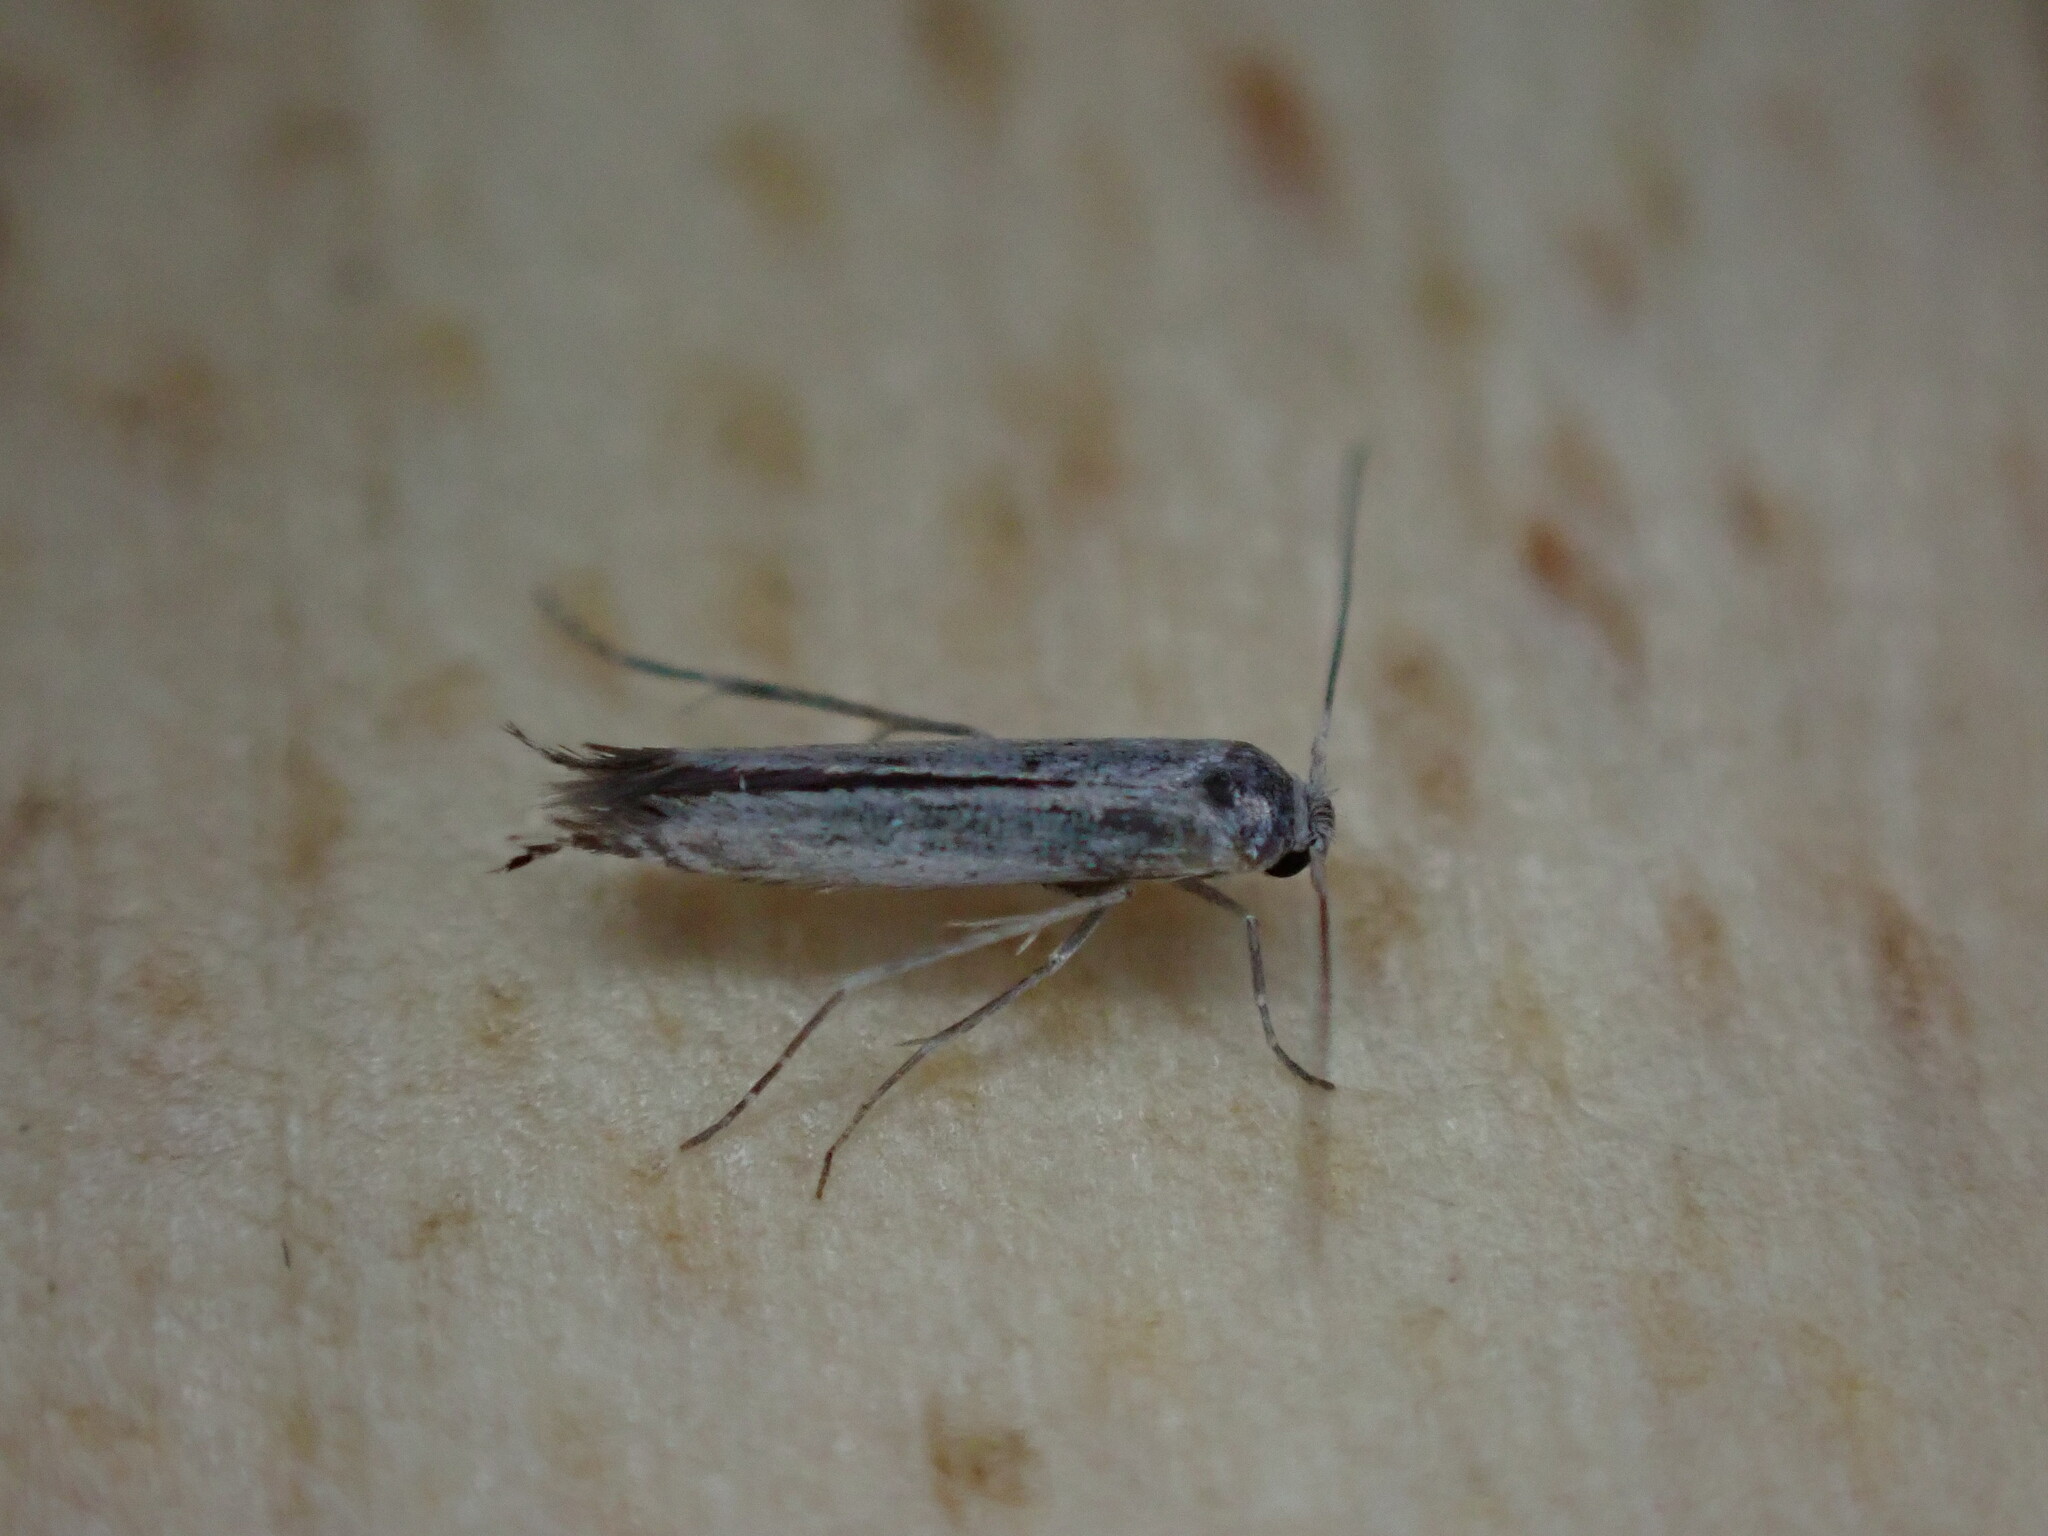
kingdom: Animalia
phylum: Arthropoda
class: Insecta
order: Lepidoptera
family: Lyonetiidae
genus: Lyonetia
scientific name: Lyonetia clerkella
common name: Apple leaf miner
